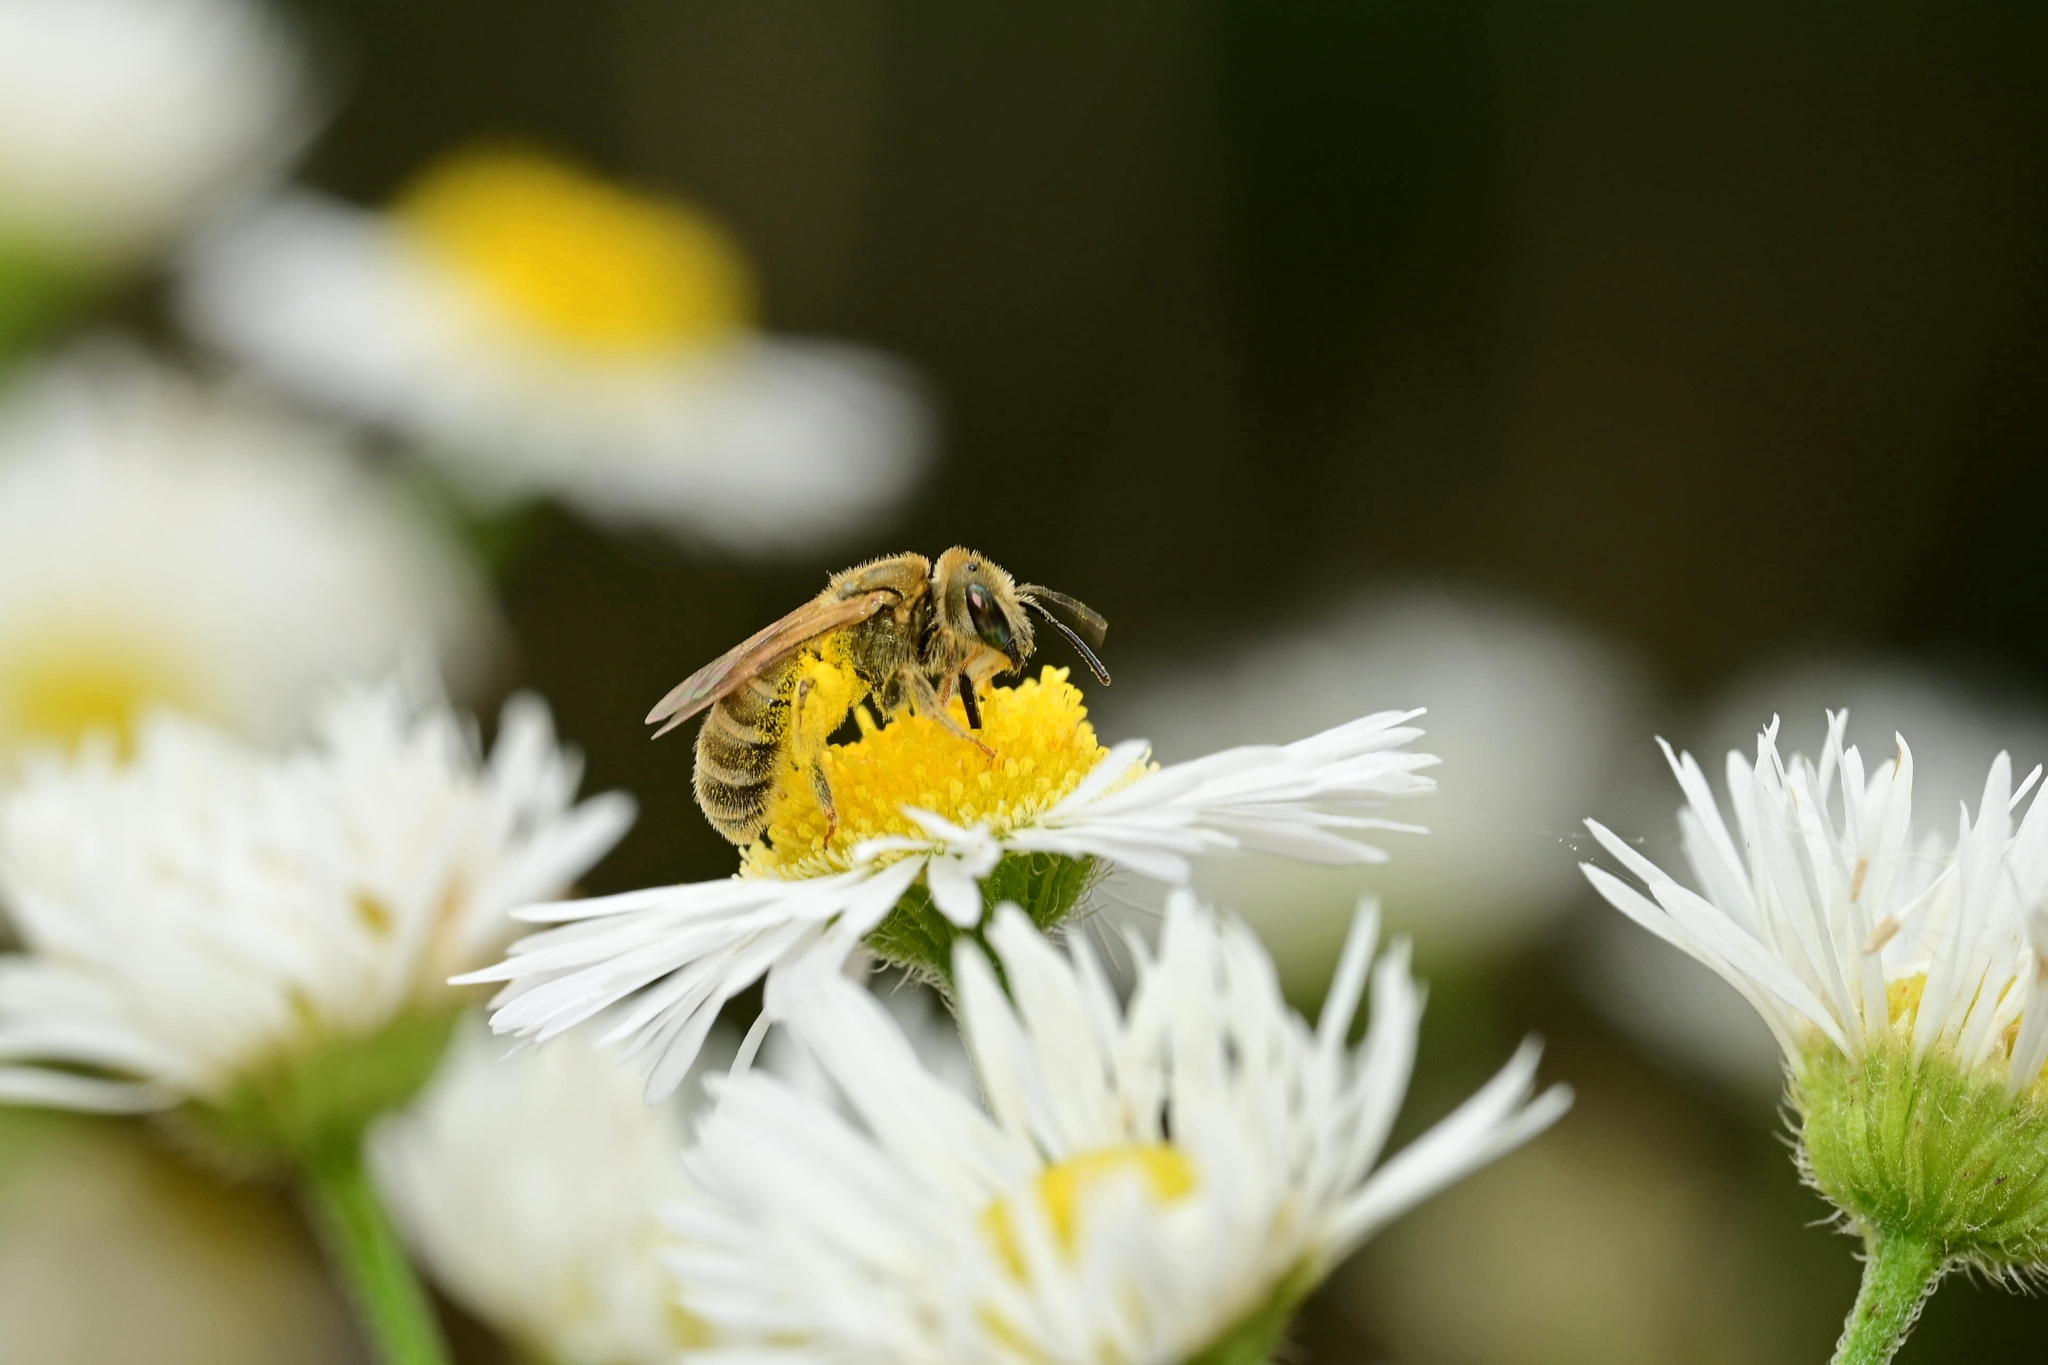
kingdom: Animalia
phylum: Arthropoda
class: Insecta
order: Hymenoptera
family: Halictidae
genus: Halictus
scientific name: Halictus subauratus
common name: Golden furrow bee
